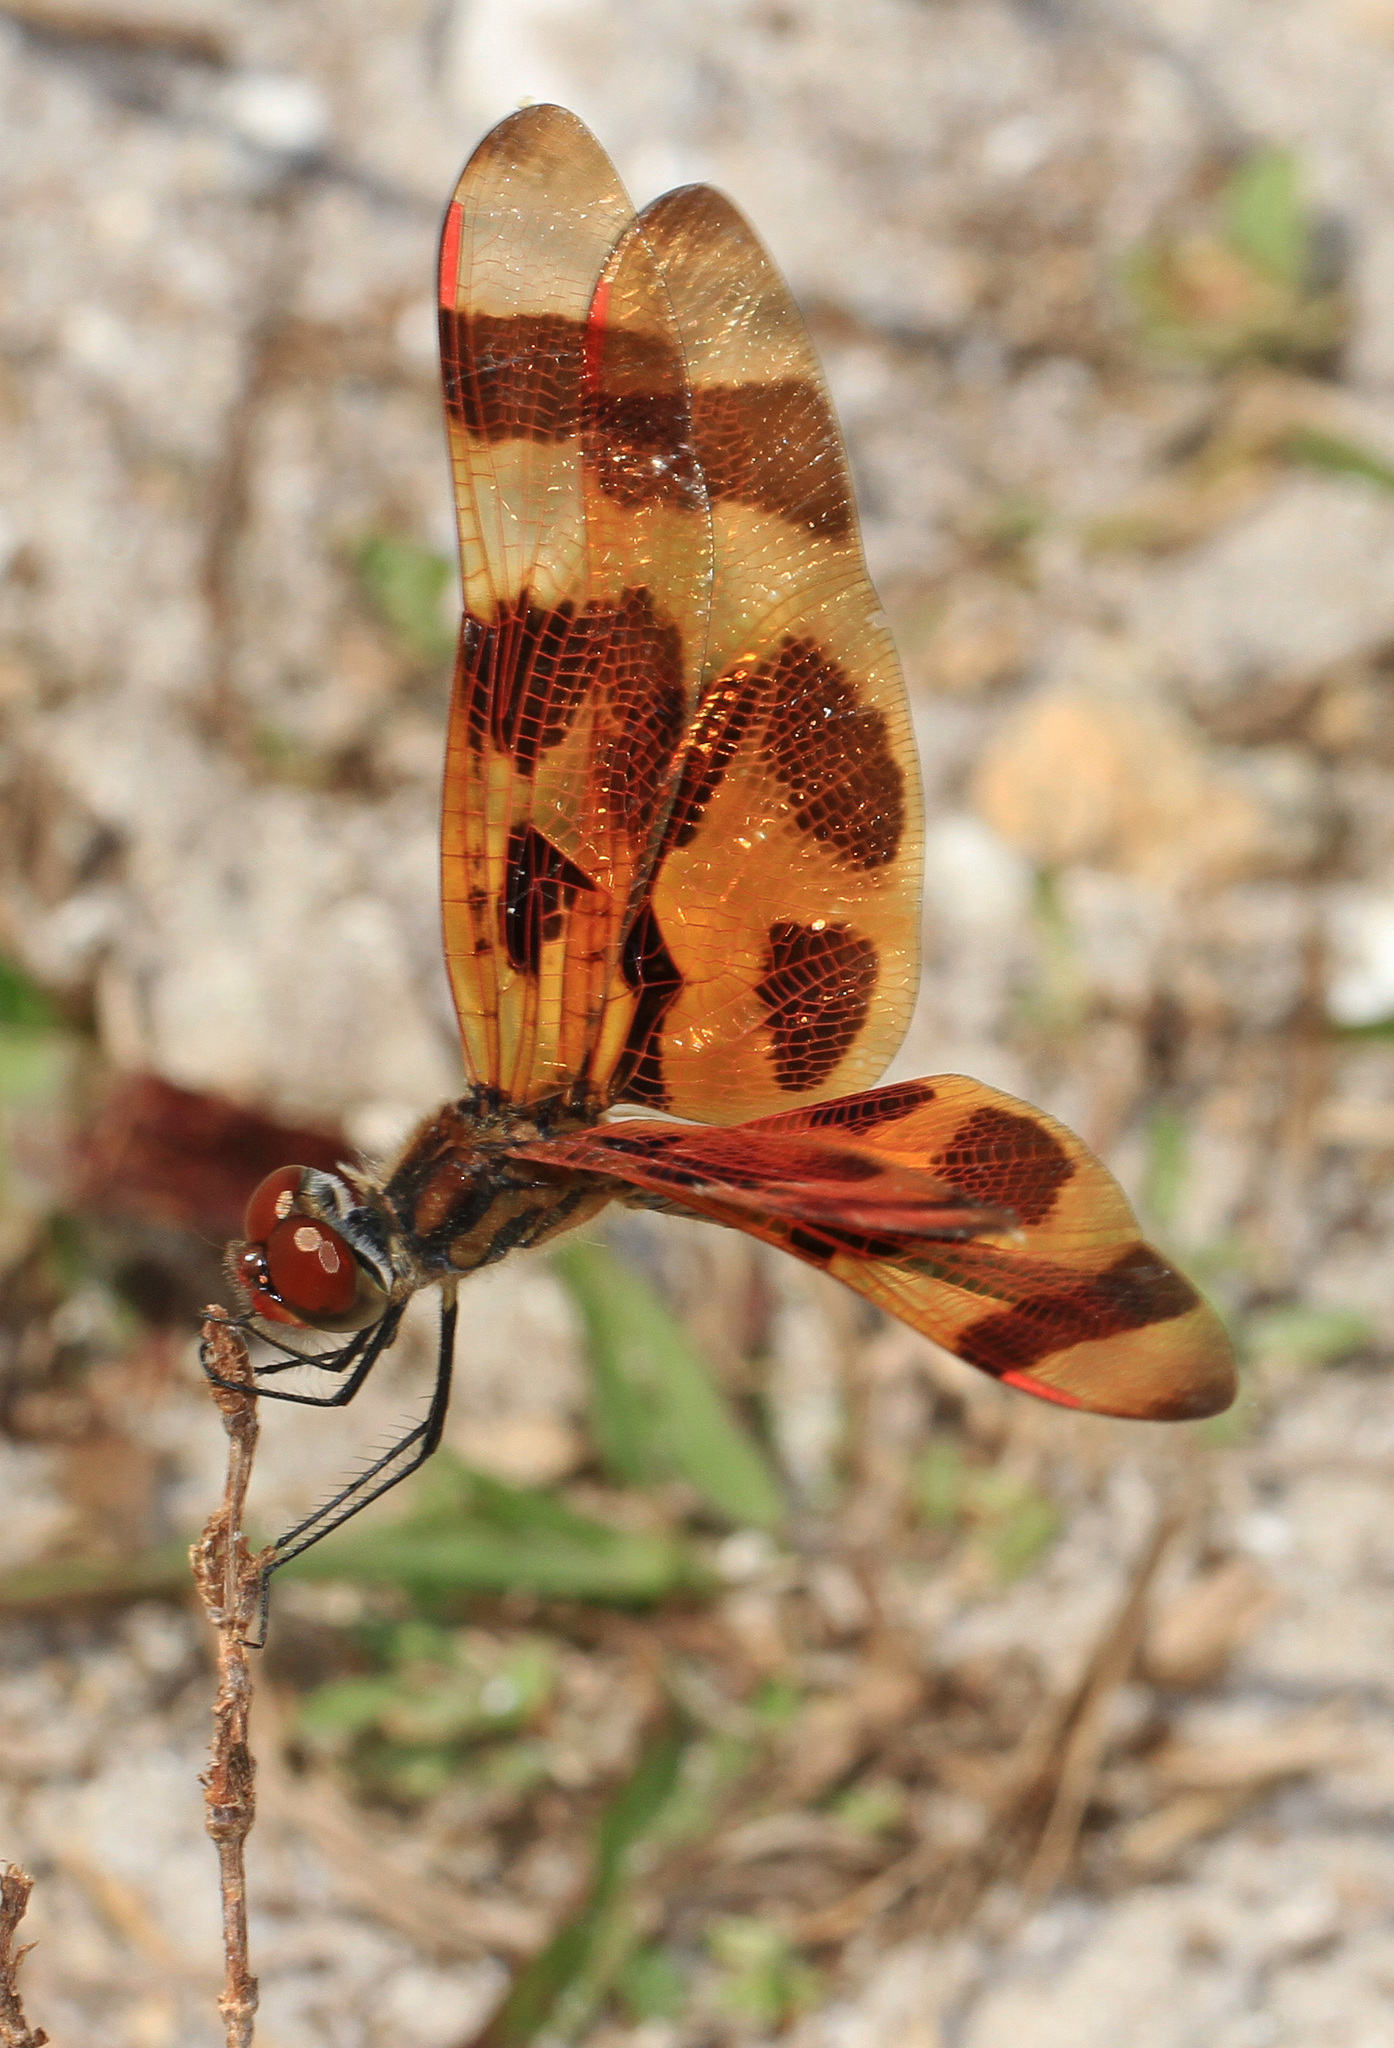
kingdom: Animalia
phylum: Arthropoda
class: Insecta
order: Odonata
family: Libellulidae
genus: Celithemis
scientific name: Celithemis eponina
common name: Halloween pennant
